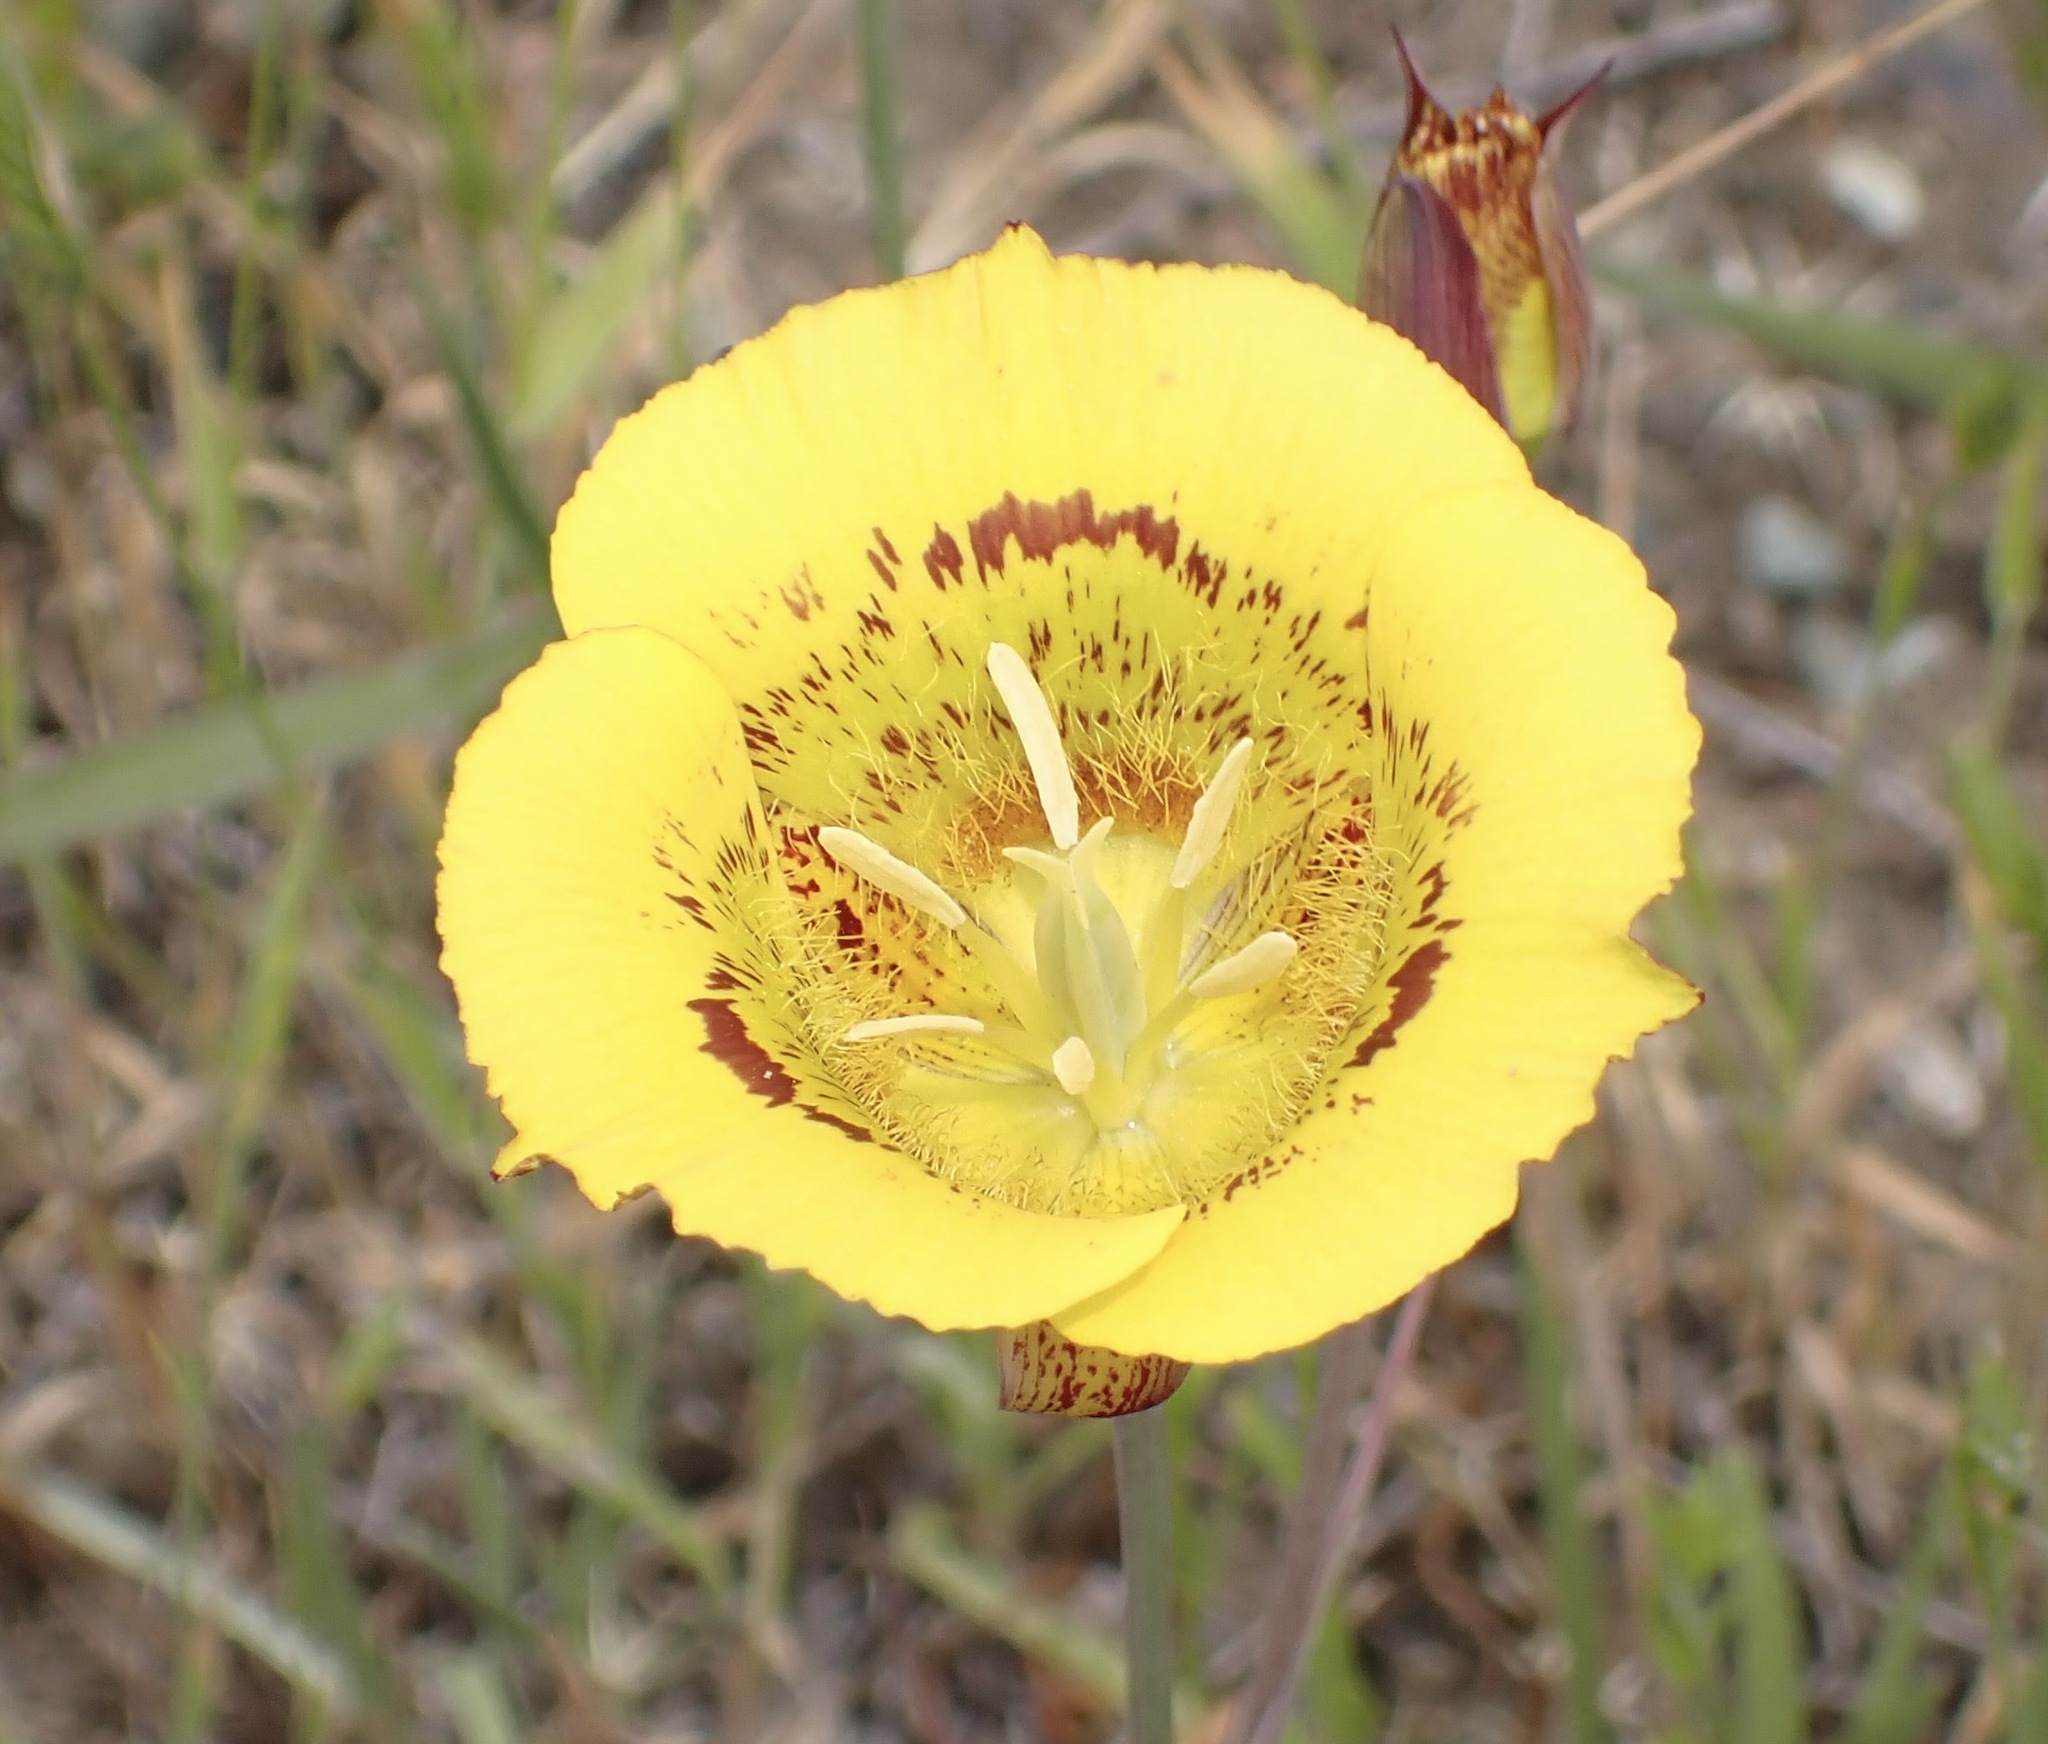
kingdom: Plantae
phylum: Tracheophyta
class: Liliopsida
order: Liliales
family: Liliaceae
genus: Calochortus
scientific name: Calochortus luteus
